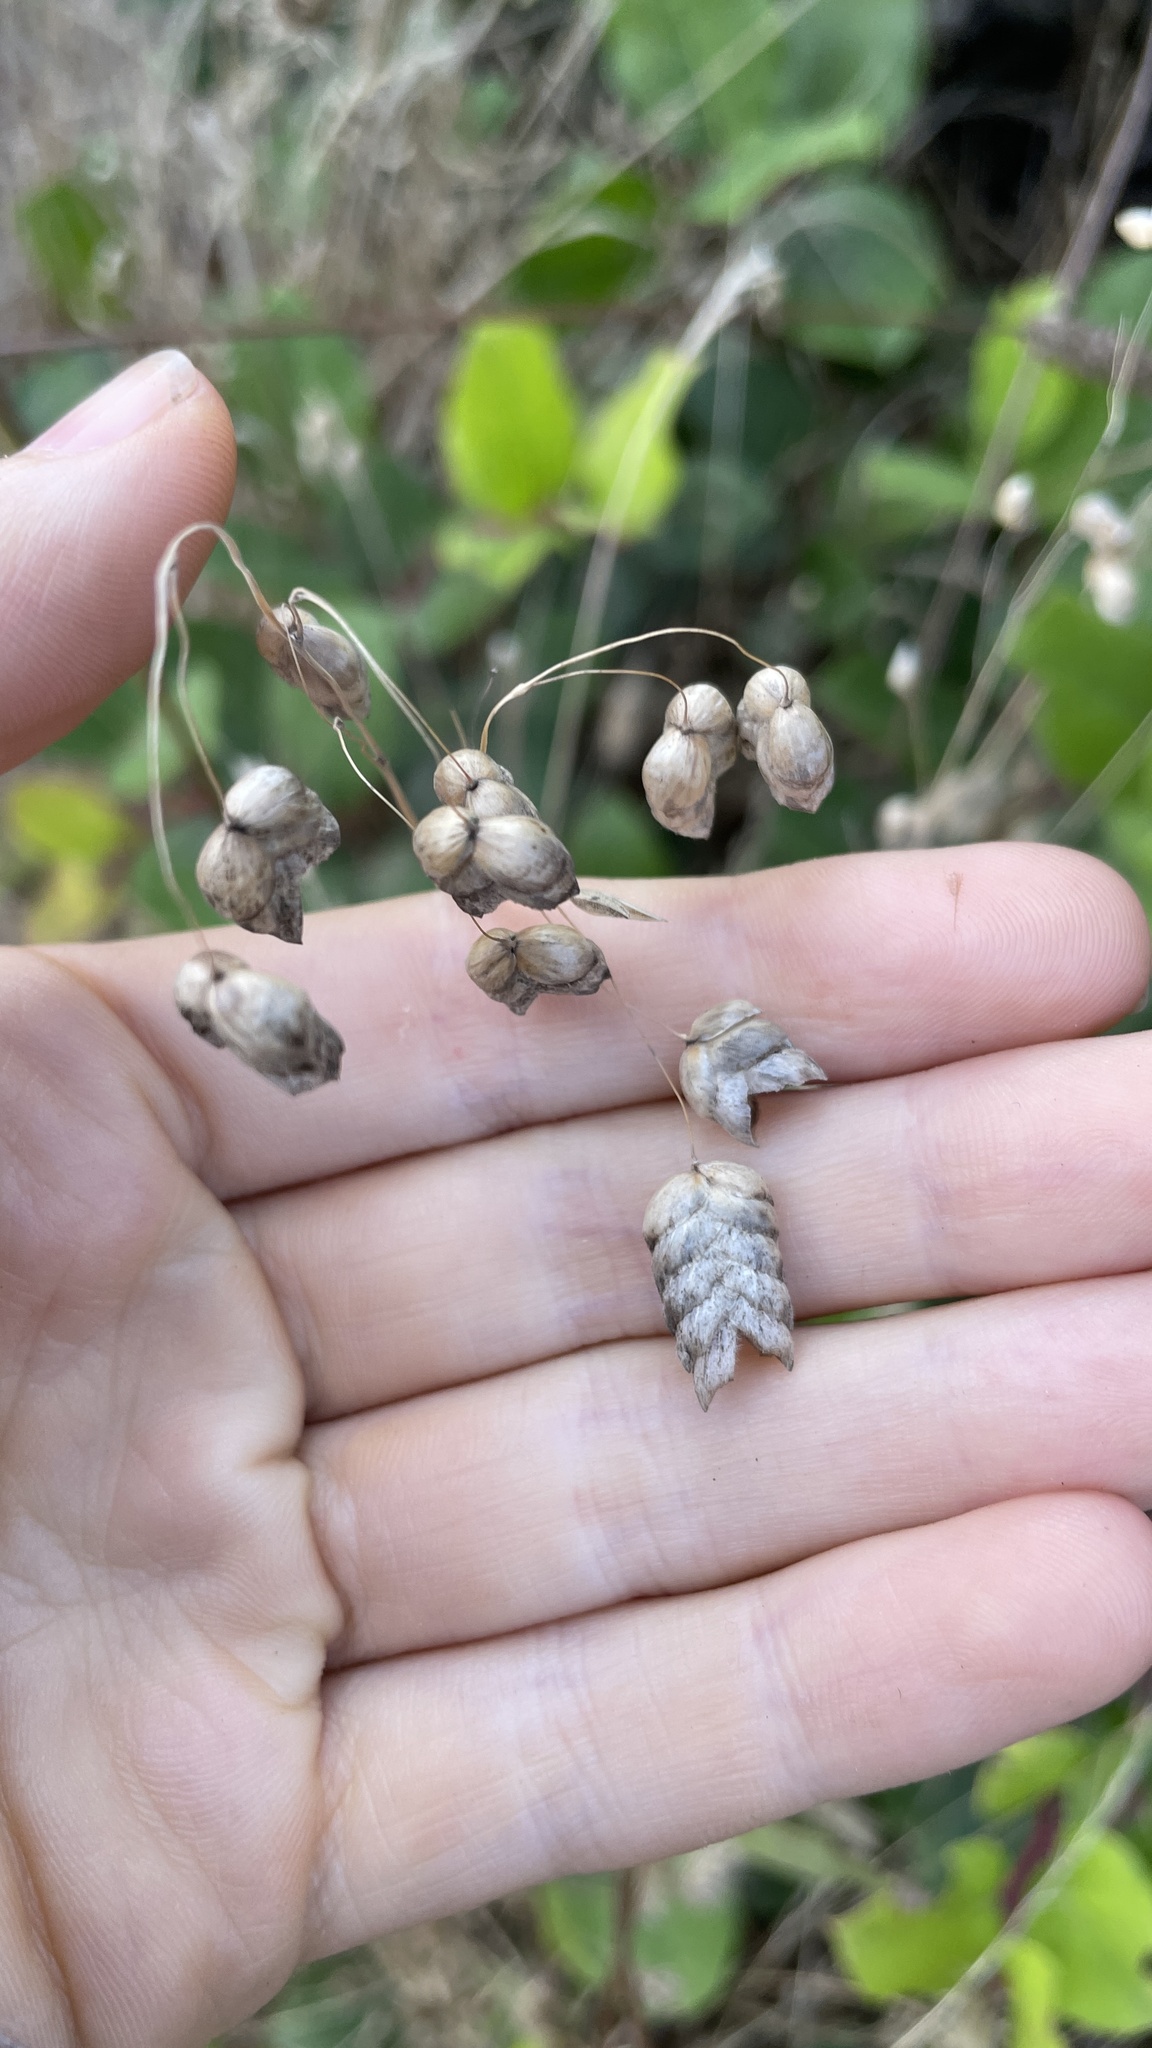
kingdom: Plantae
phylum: Tracheophyta
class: Liliopsida
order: Poales
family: Poaceae
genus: Briza
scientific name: Briza maxima
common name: Big quakinggrass
